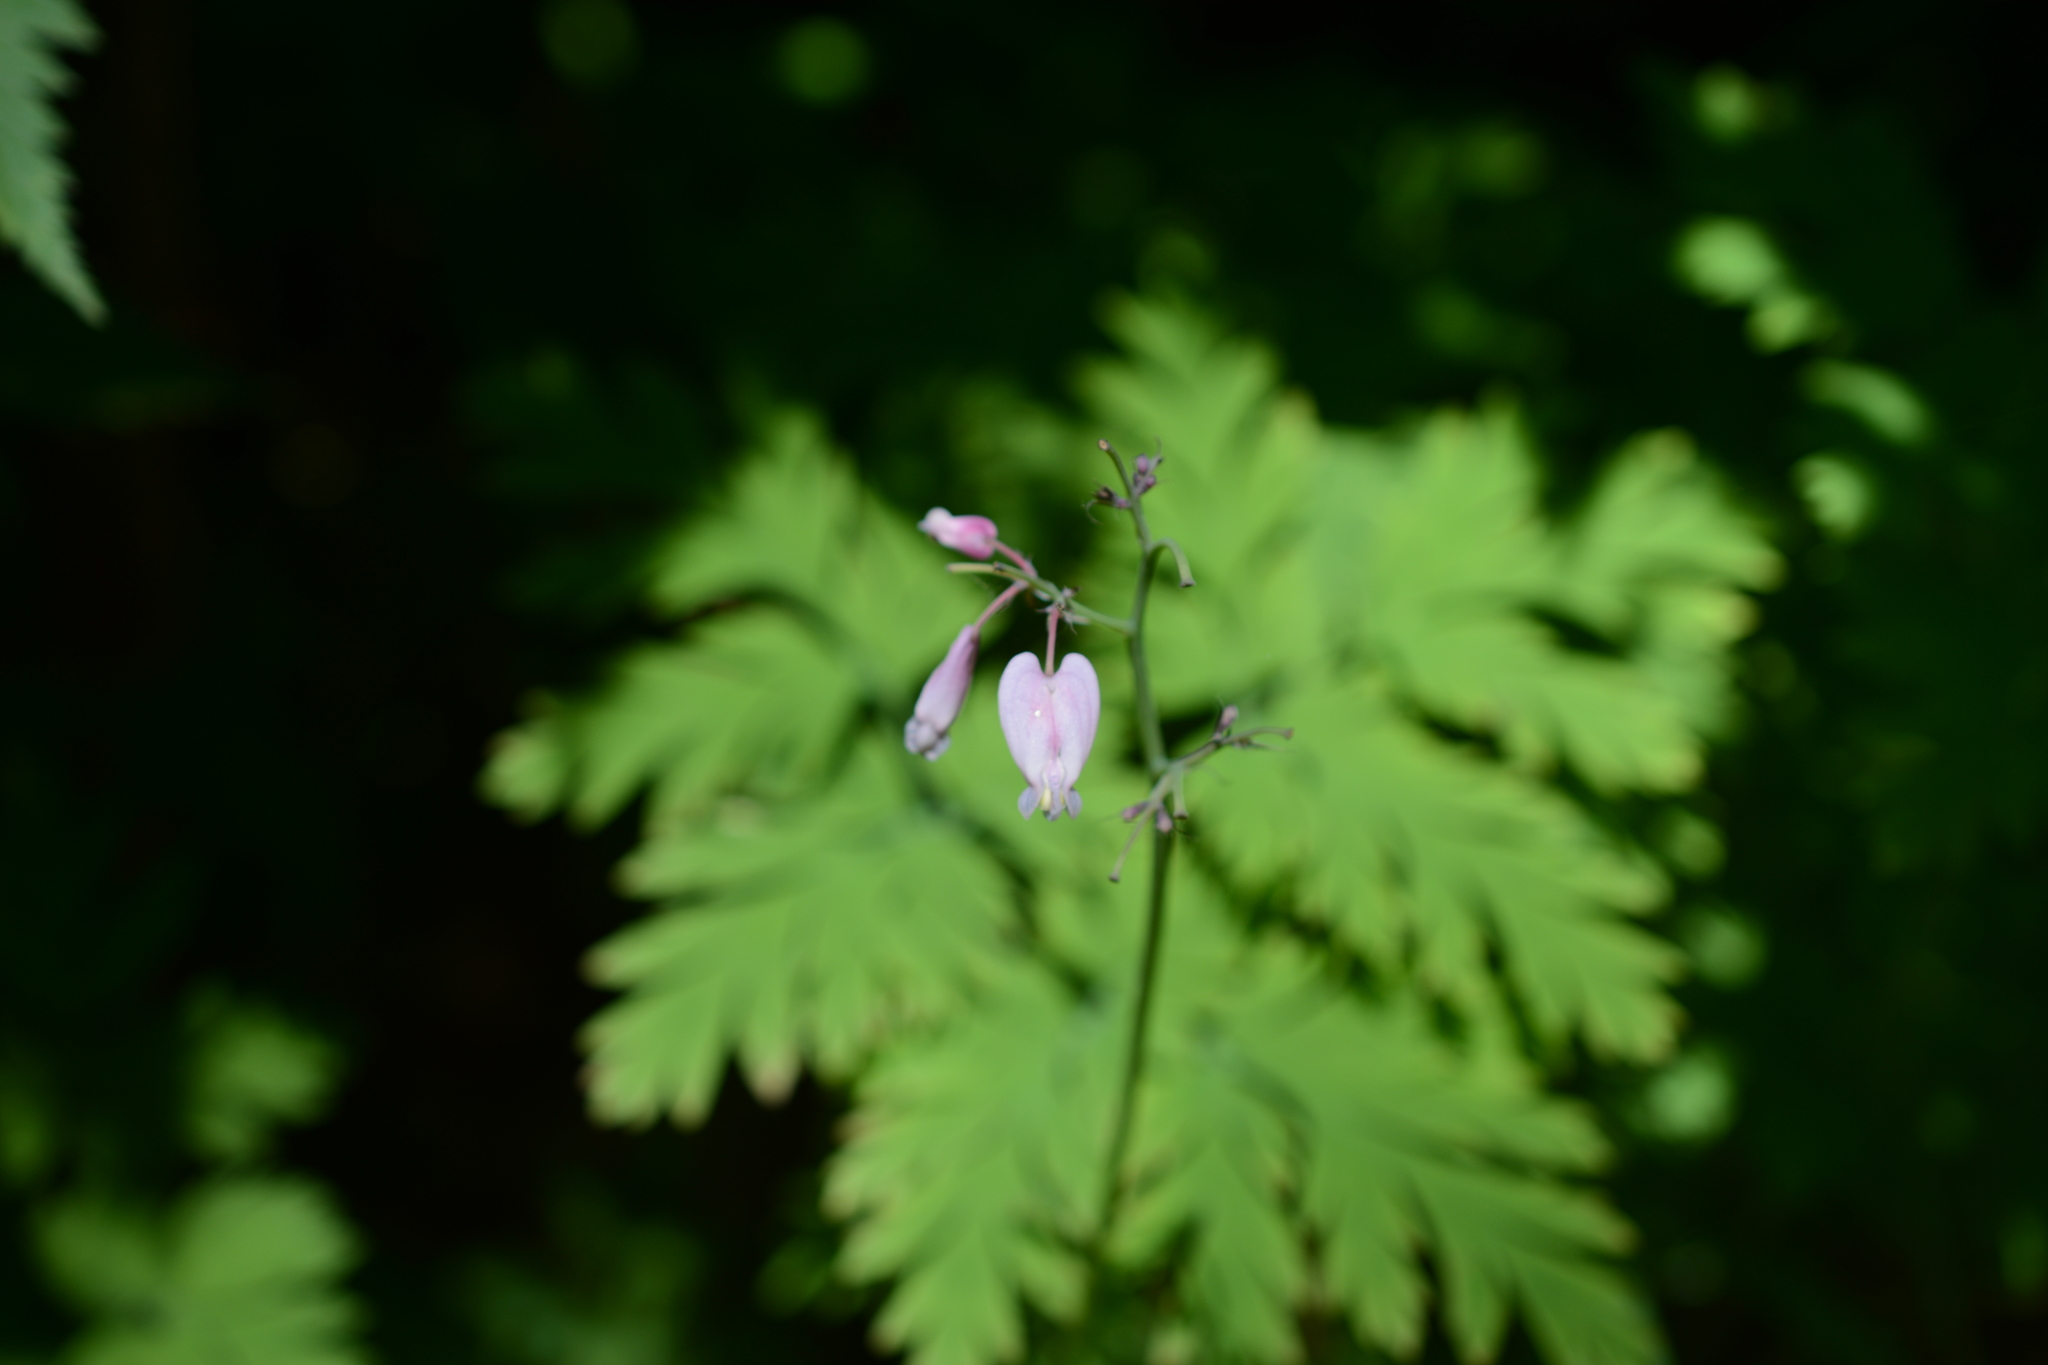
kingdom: Plantae
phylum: Tracheophyta
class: Magnoliopsida
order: Ranunculales
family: Papaveraceae
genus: Dicentra
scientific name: Dicentra formosa
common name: Bleeding-heart
